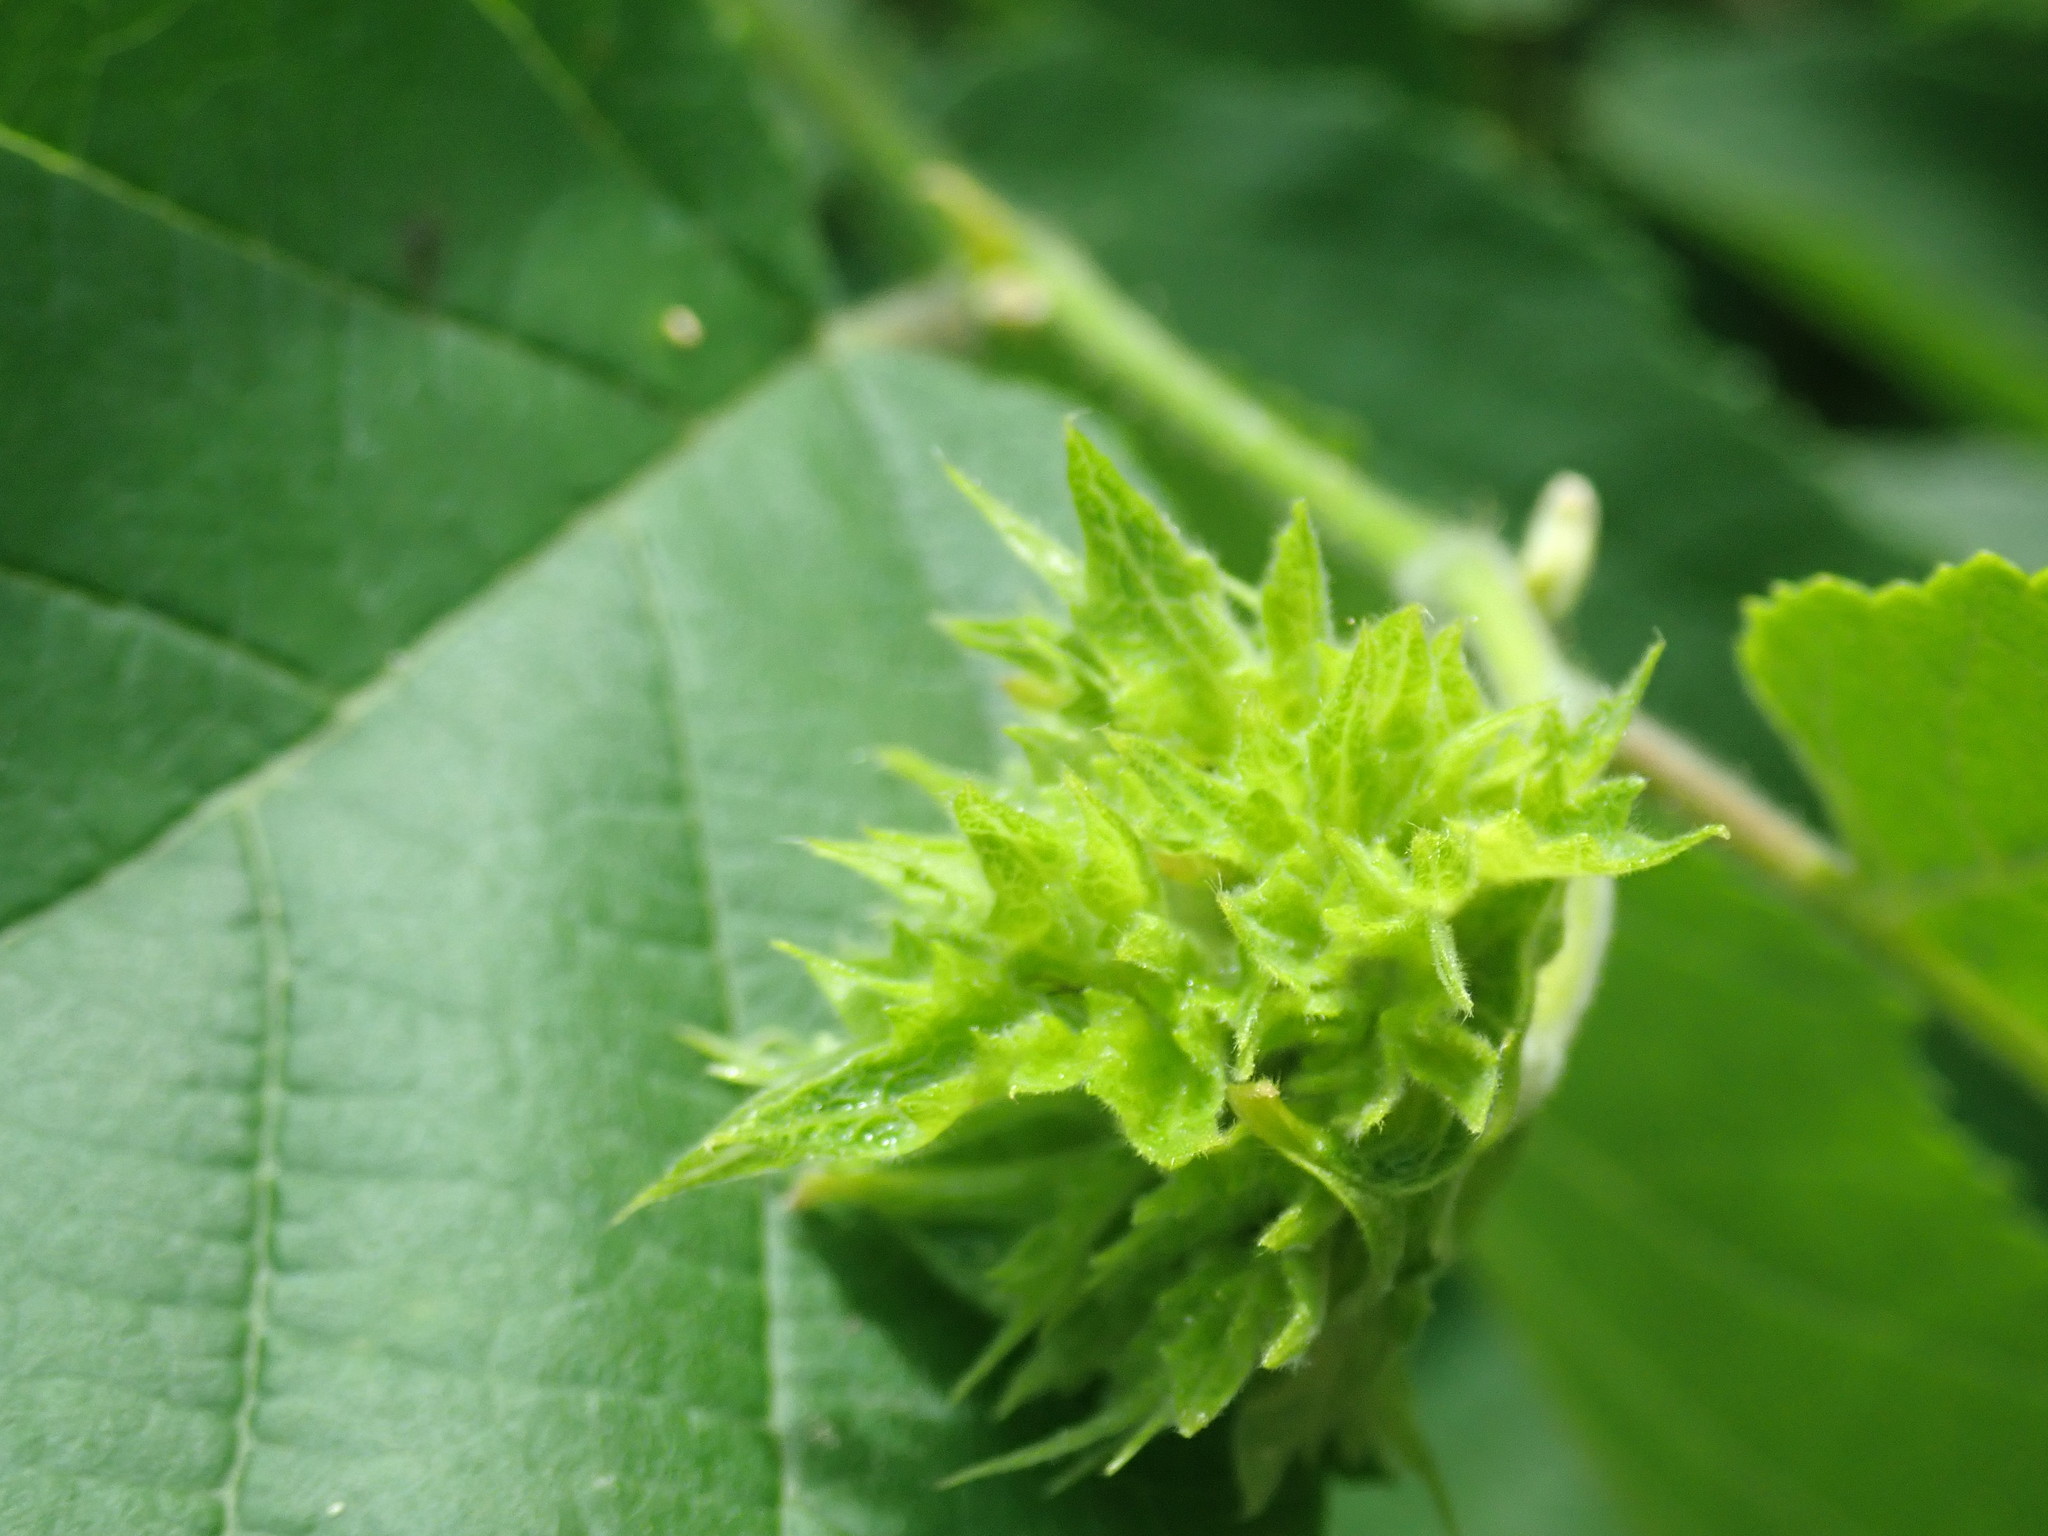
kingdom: Plantae
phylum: Tracheophyta
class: Magnoliopsida
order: Fagales
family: Betulaceae
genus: Corylus
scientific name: Corylus americana
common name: American hazel
